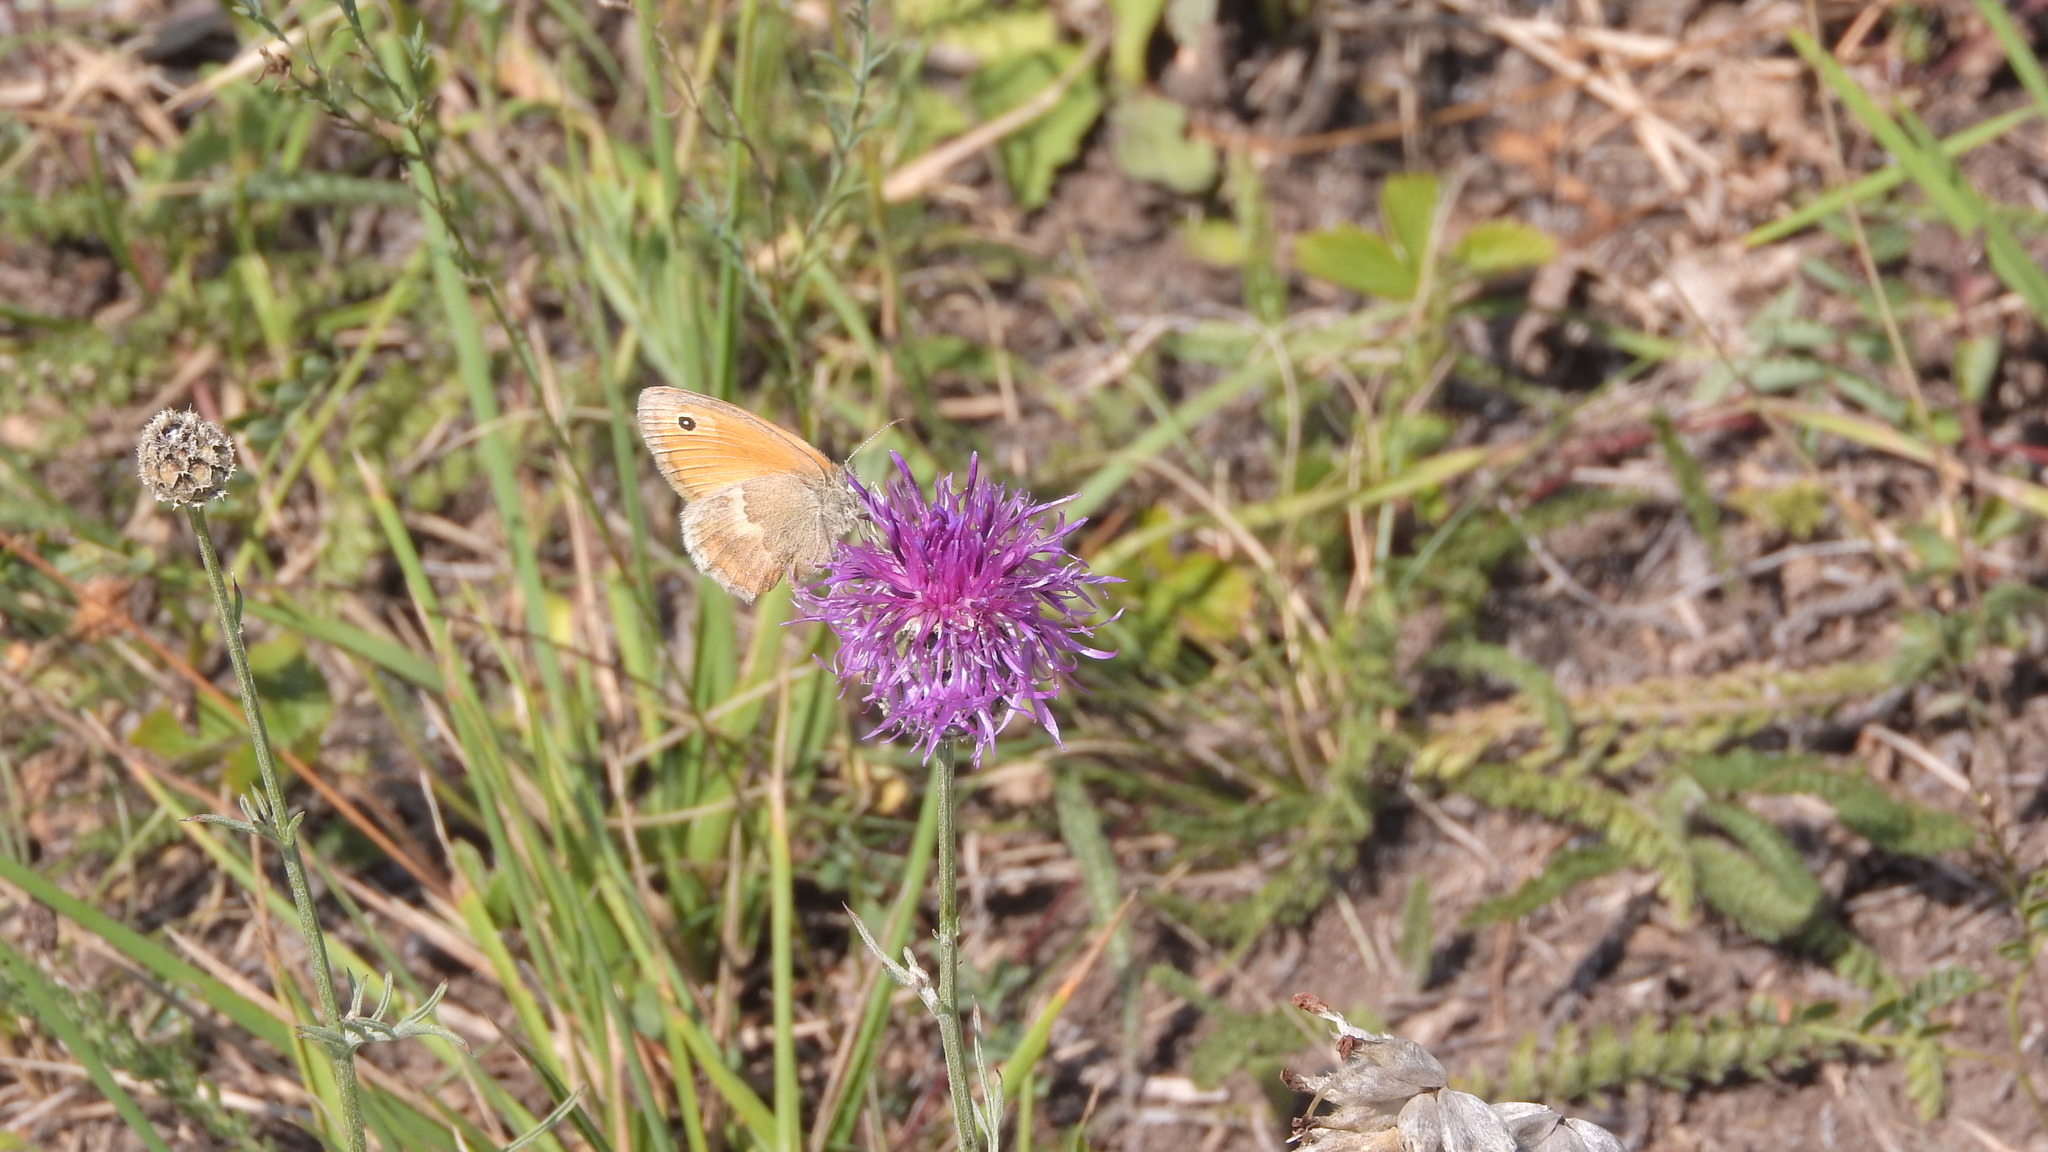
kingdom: Animalia
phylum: Arthropoda
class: Insecta
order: Lepidoptera
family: Nymphalidae
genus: Coenonympha
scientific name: Coenonympha pamphilus
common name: Small heath
